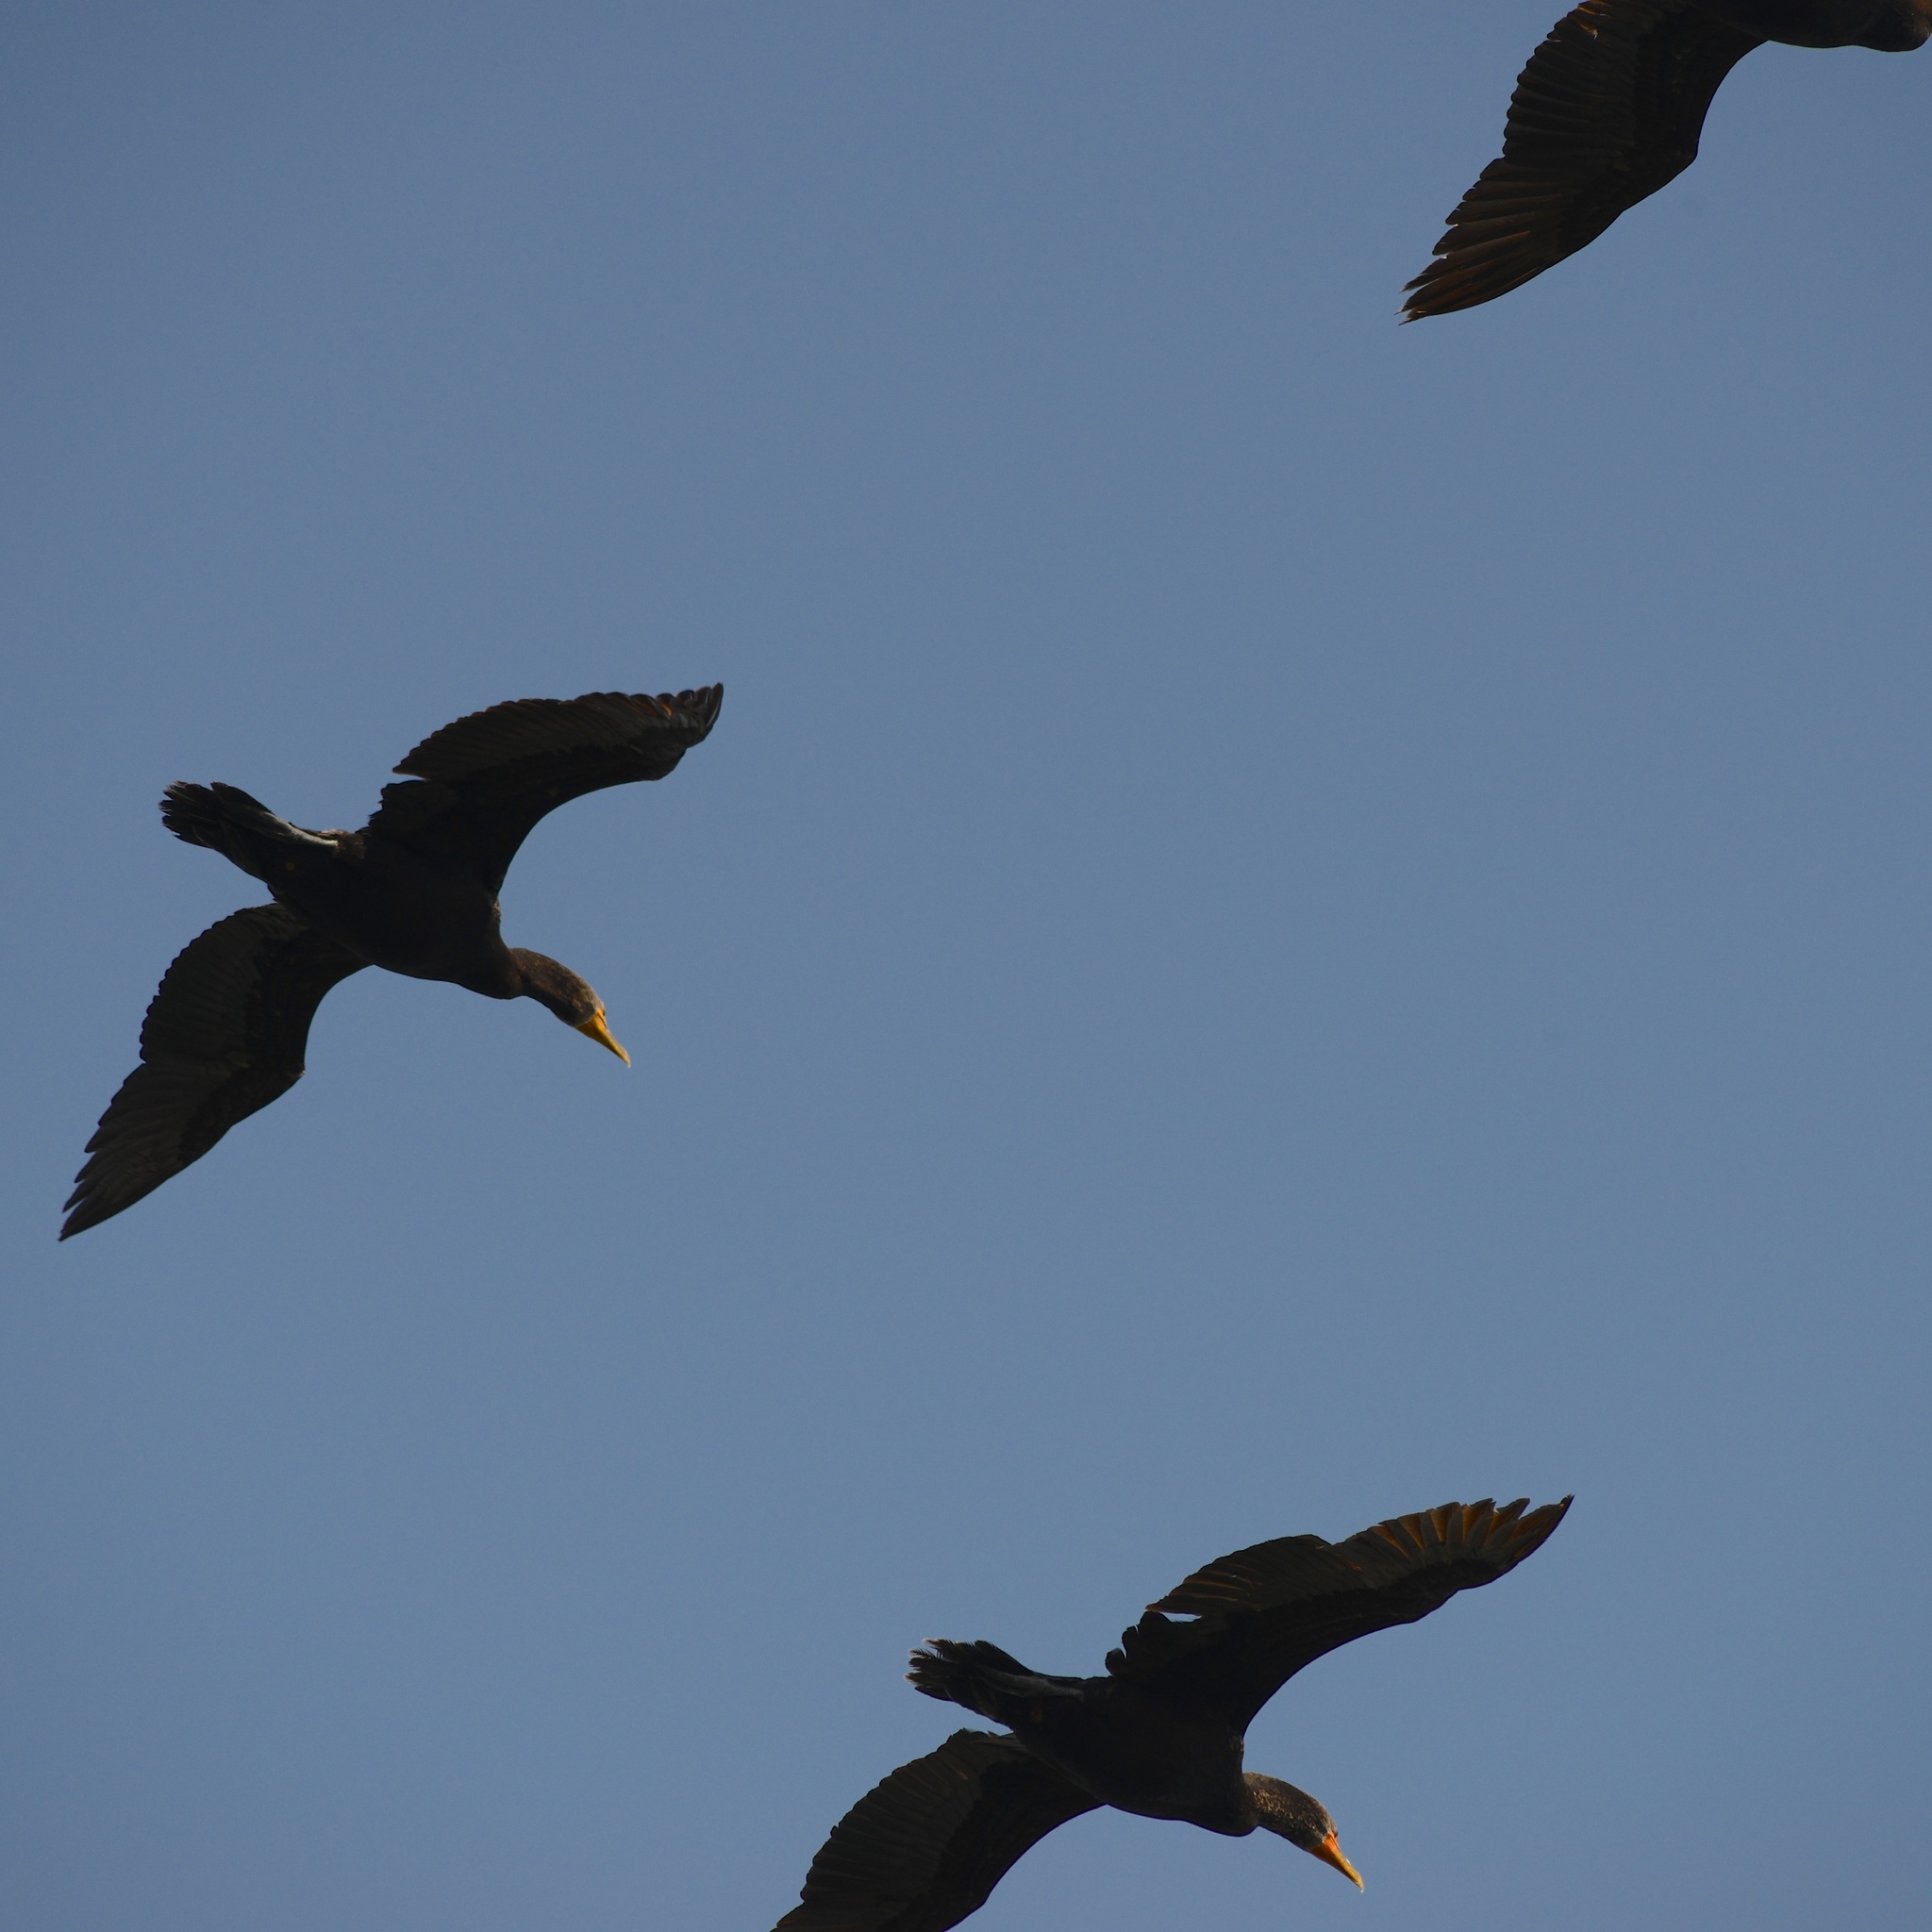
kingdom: Animalia
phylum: Chordata
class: Aves
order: Suliformes
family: Phalacrocoracidae
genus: Phalacrocorax
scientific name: Phalacrocorax auritus
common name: Double-crested cormorant
